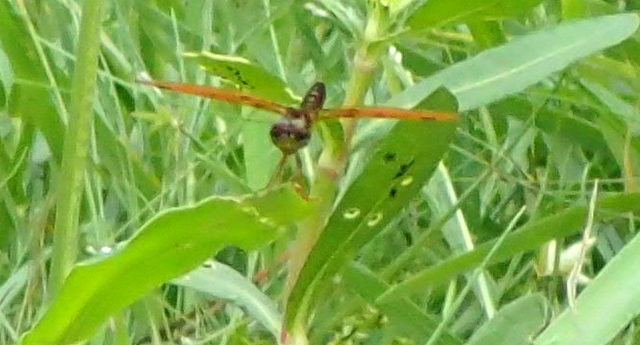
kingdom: Animalia
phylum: Arthropoda
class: Insecta
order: Odonata
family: Libellulidae
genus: Perithemis
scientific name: Perithemis tenera
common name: Eastern amberwing
